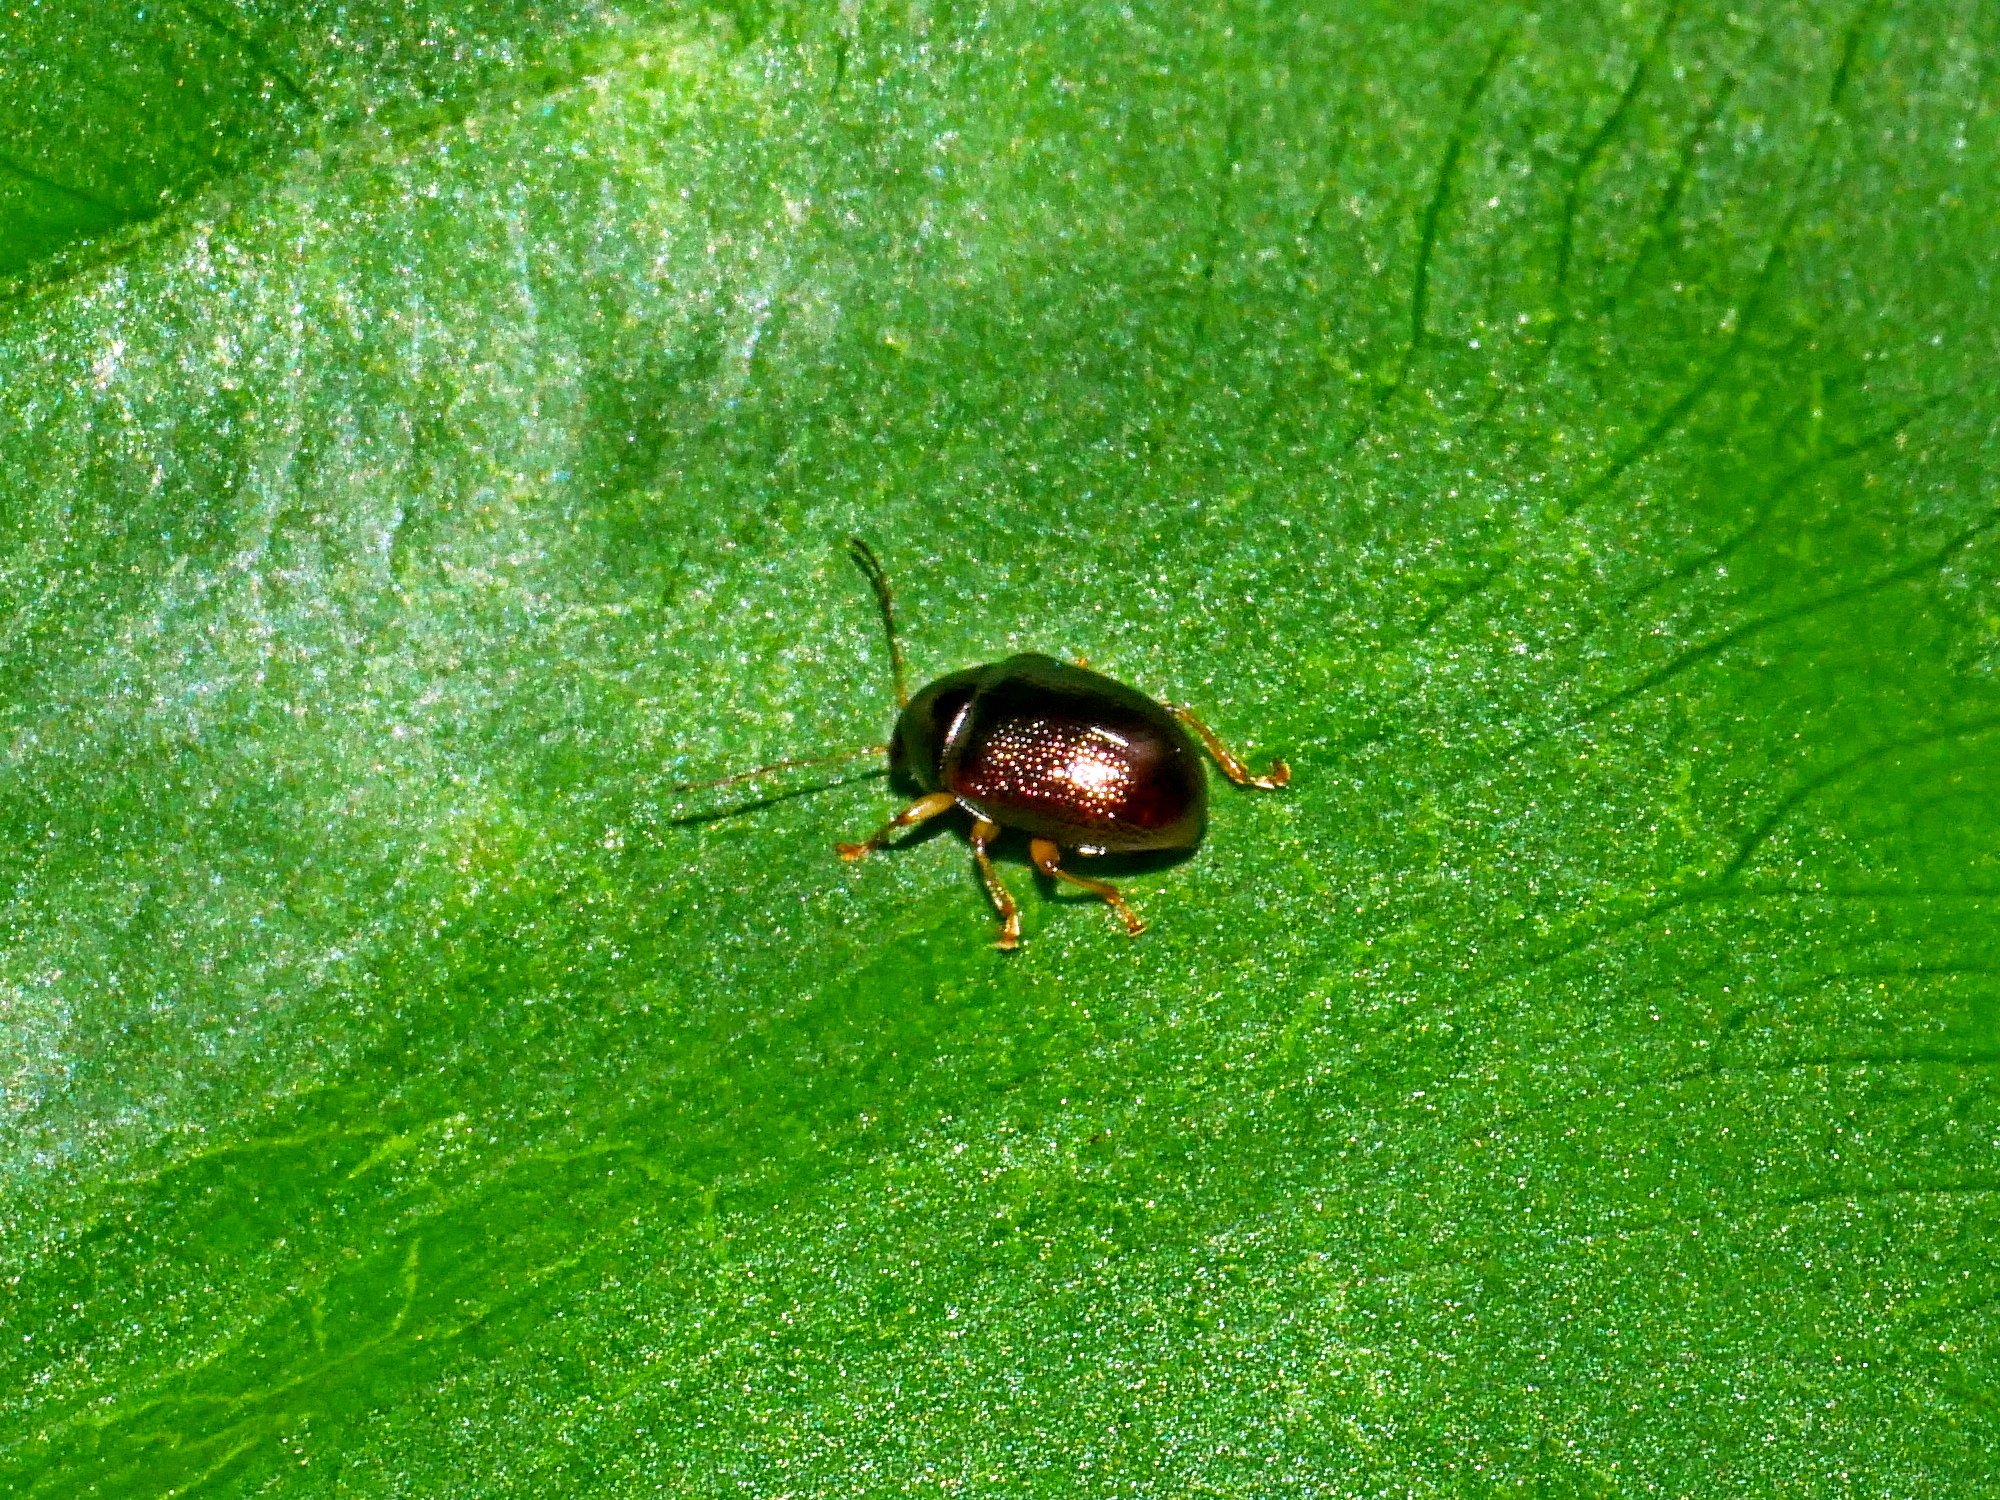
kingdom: Animalia
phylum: Arthropoda
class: Insecta
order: Coleoptera
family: Chrysomelidae
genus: Colaspoides
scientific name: Colaspoides taiwanaus
